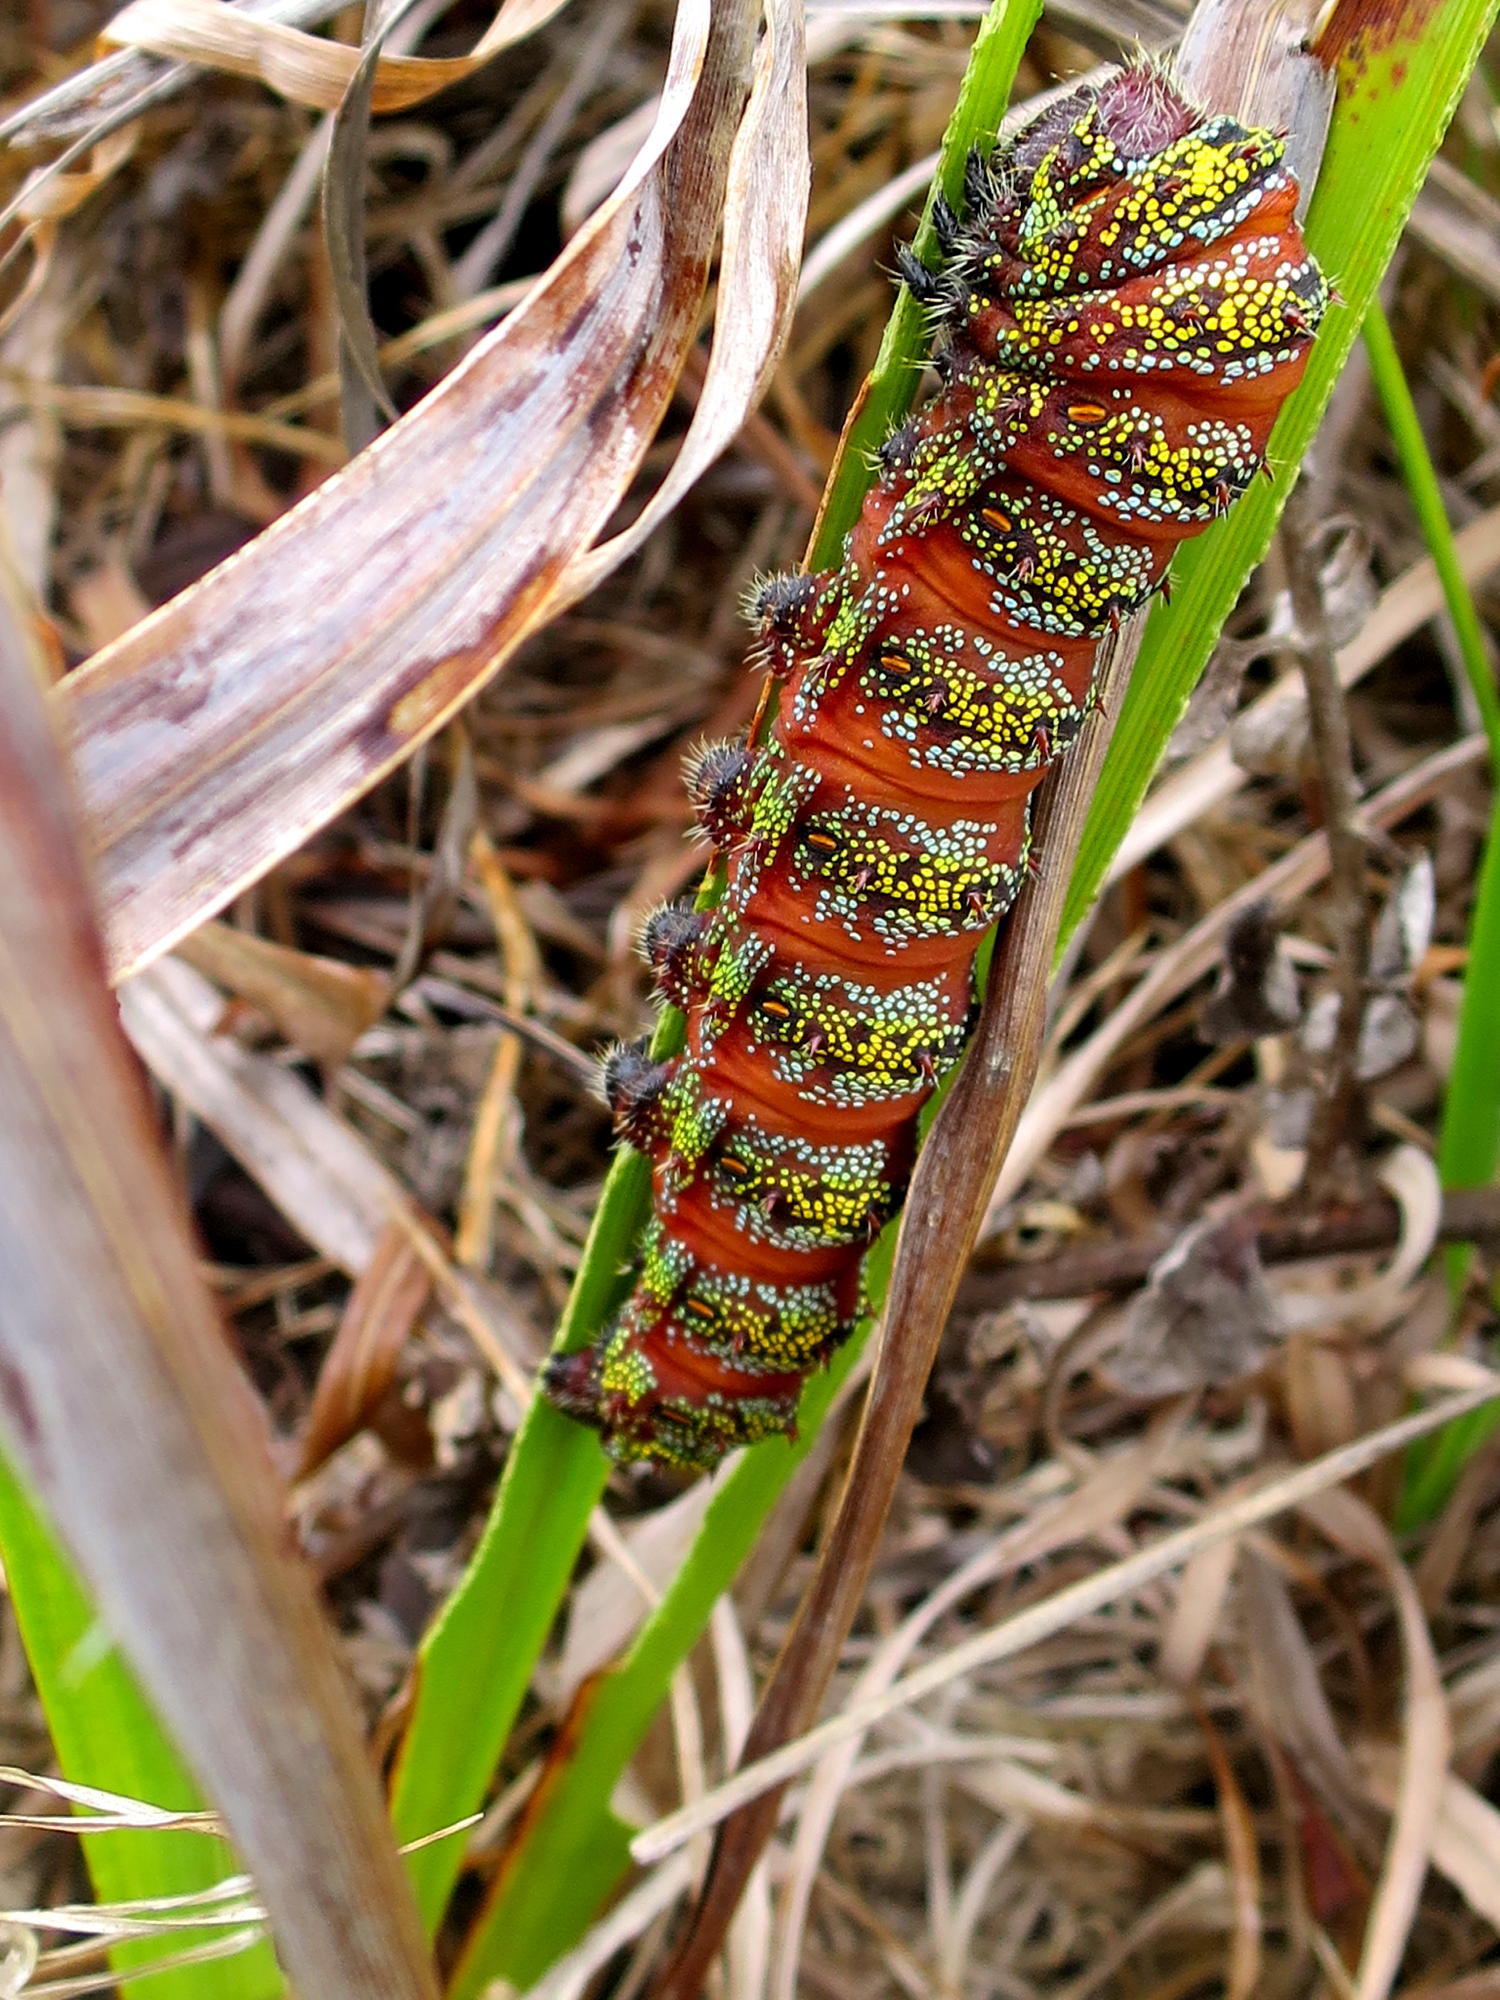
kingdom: Animalia
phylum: Arthropoda
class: Insecta
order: Lepidoptera
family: Saturniidae
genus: Nudaurelia
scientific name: Nudaurelia cytherea
